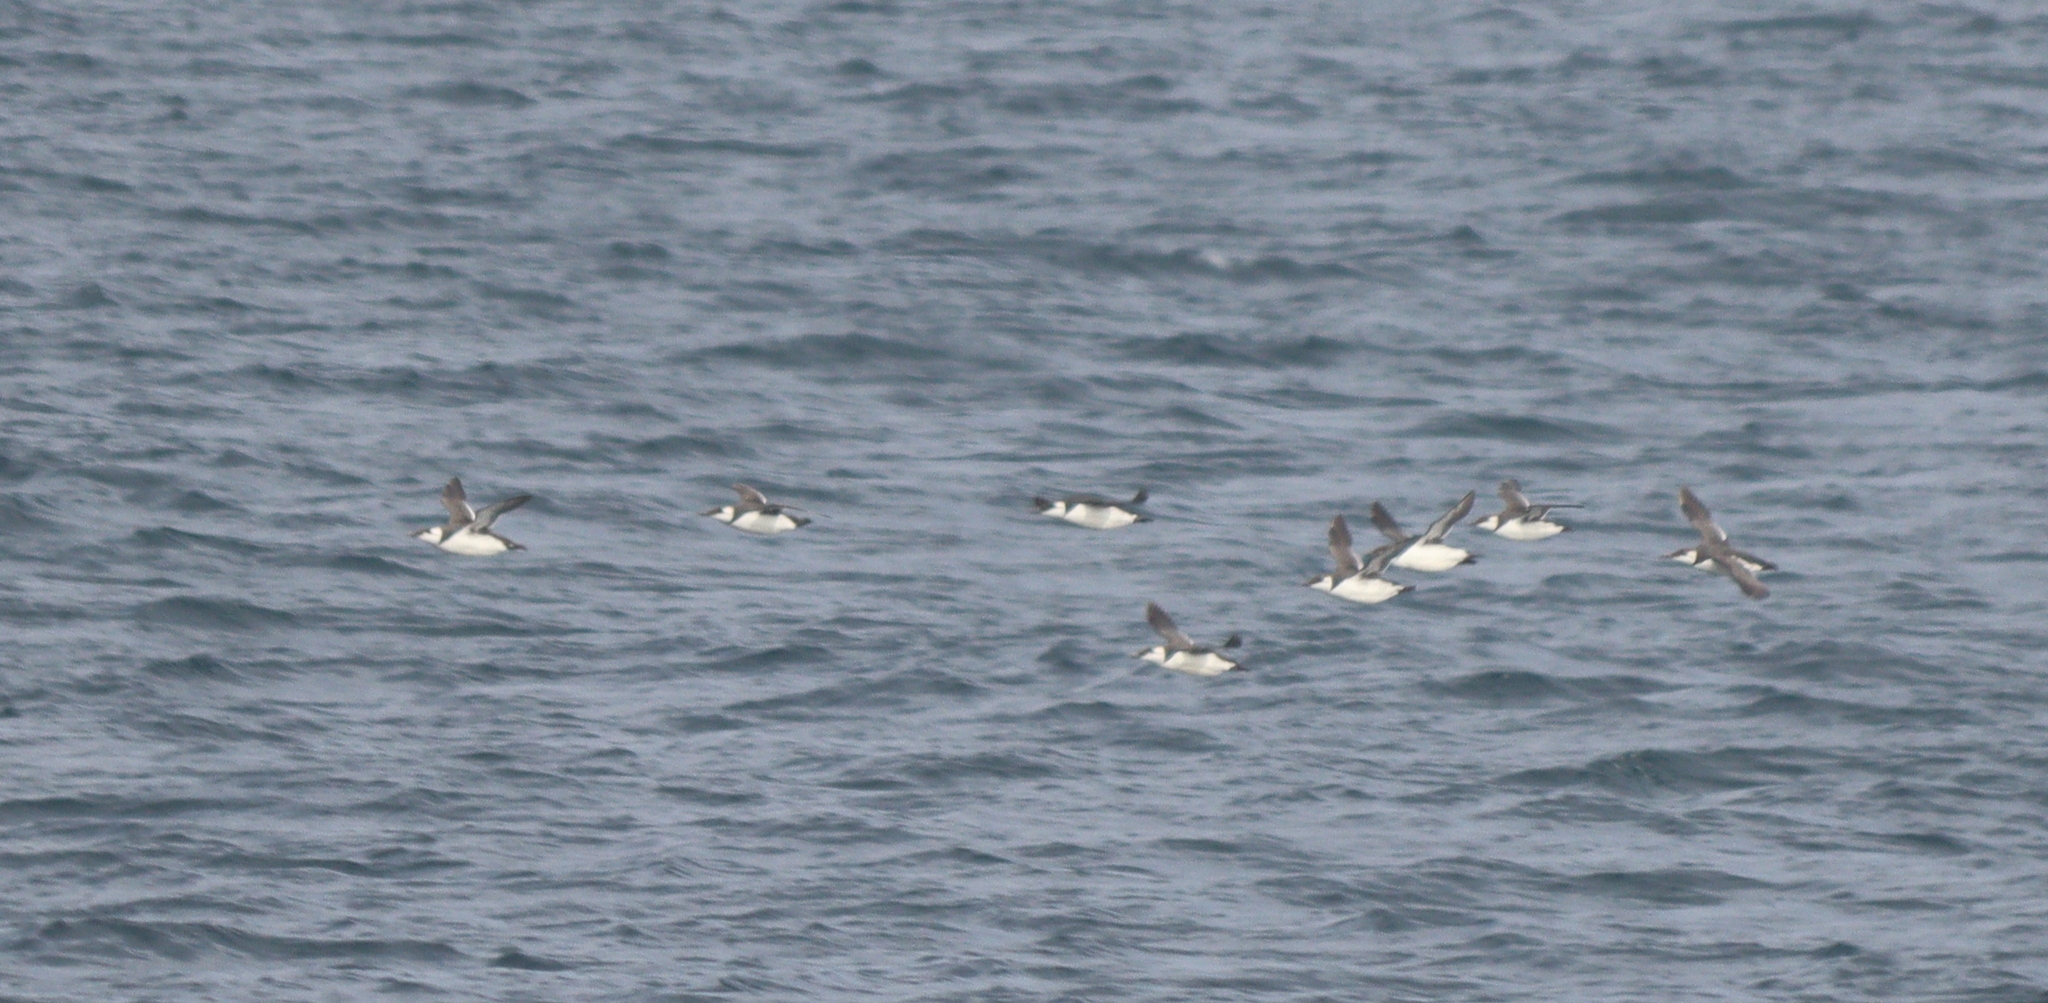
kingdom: Animalia
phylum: Chordata
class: Aves
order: Charadriiformes
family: Alcidae
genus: Uria
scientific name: Uria aalge
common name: Common murre
